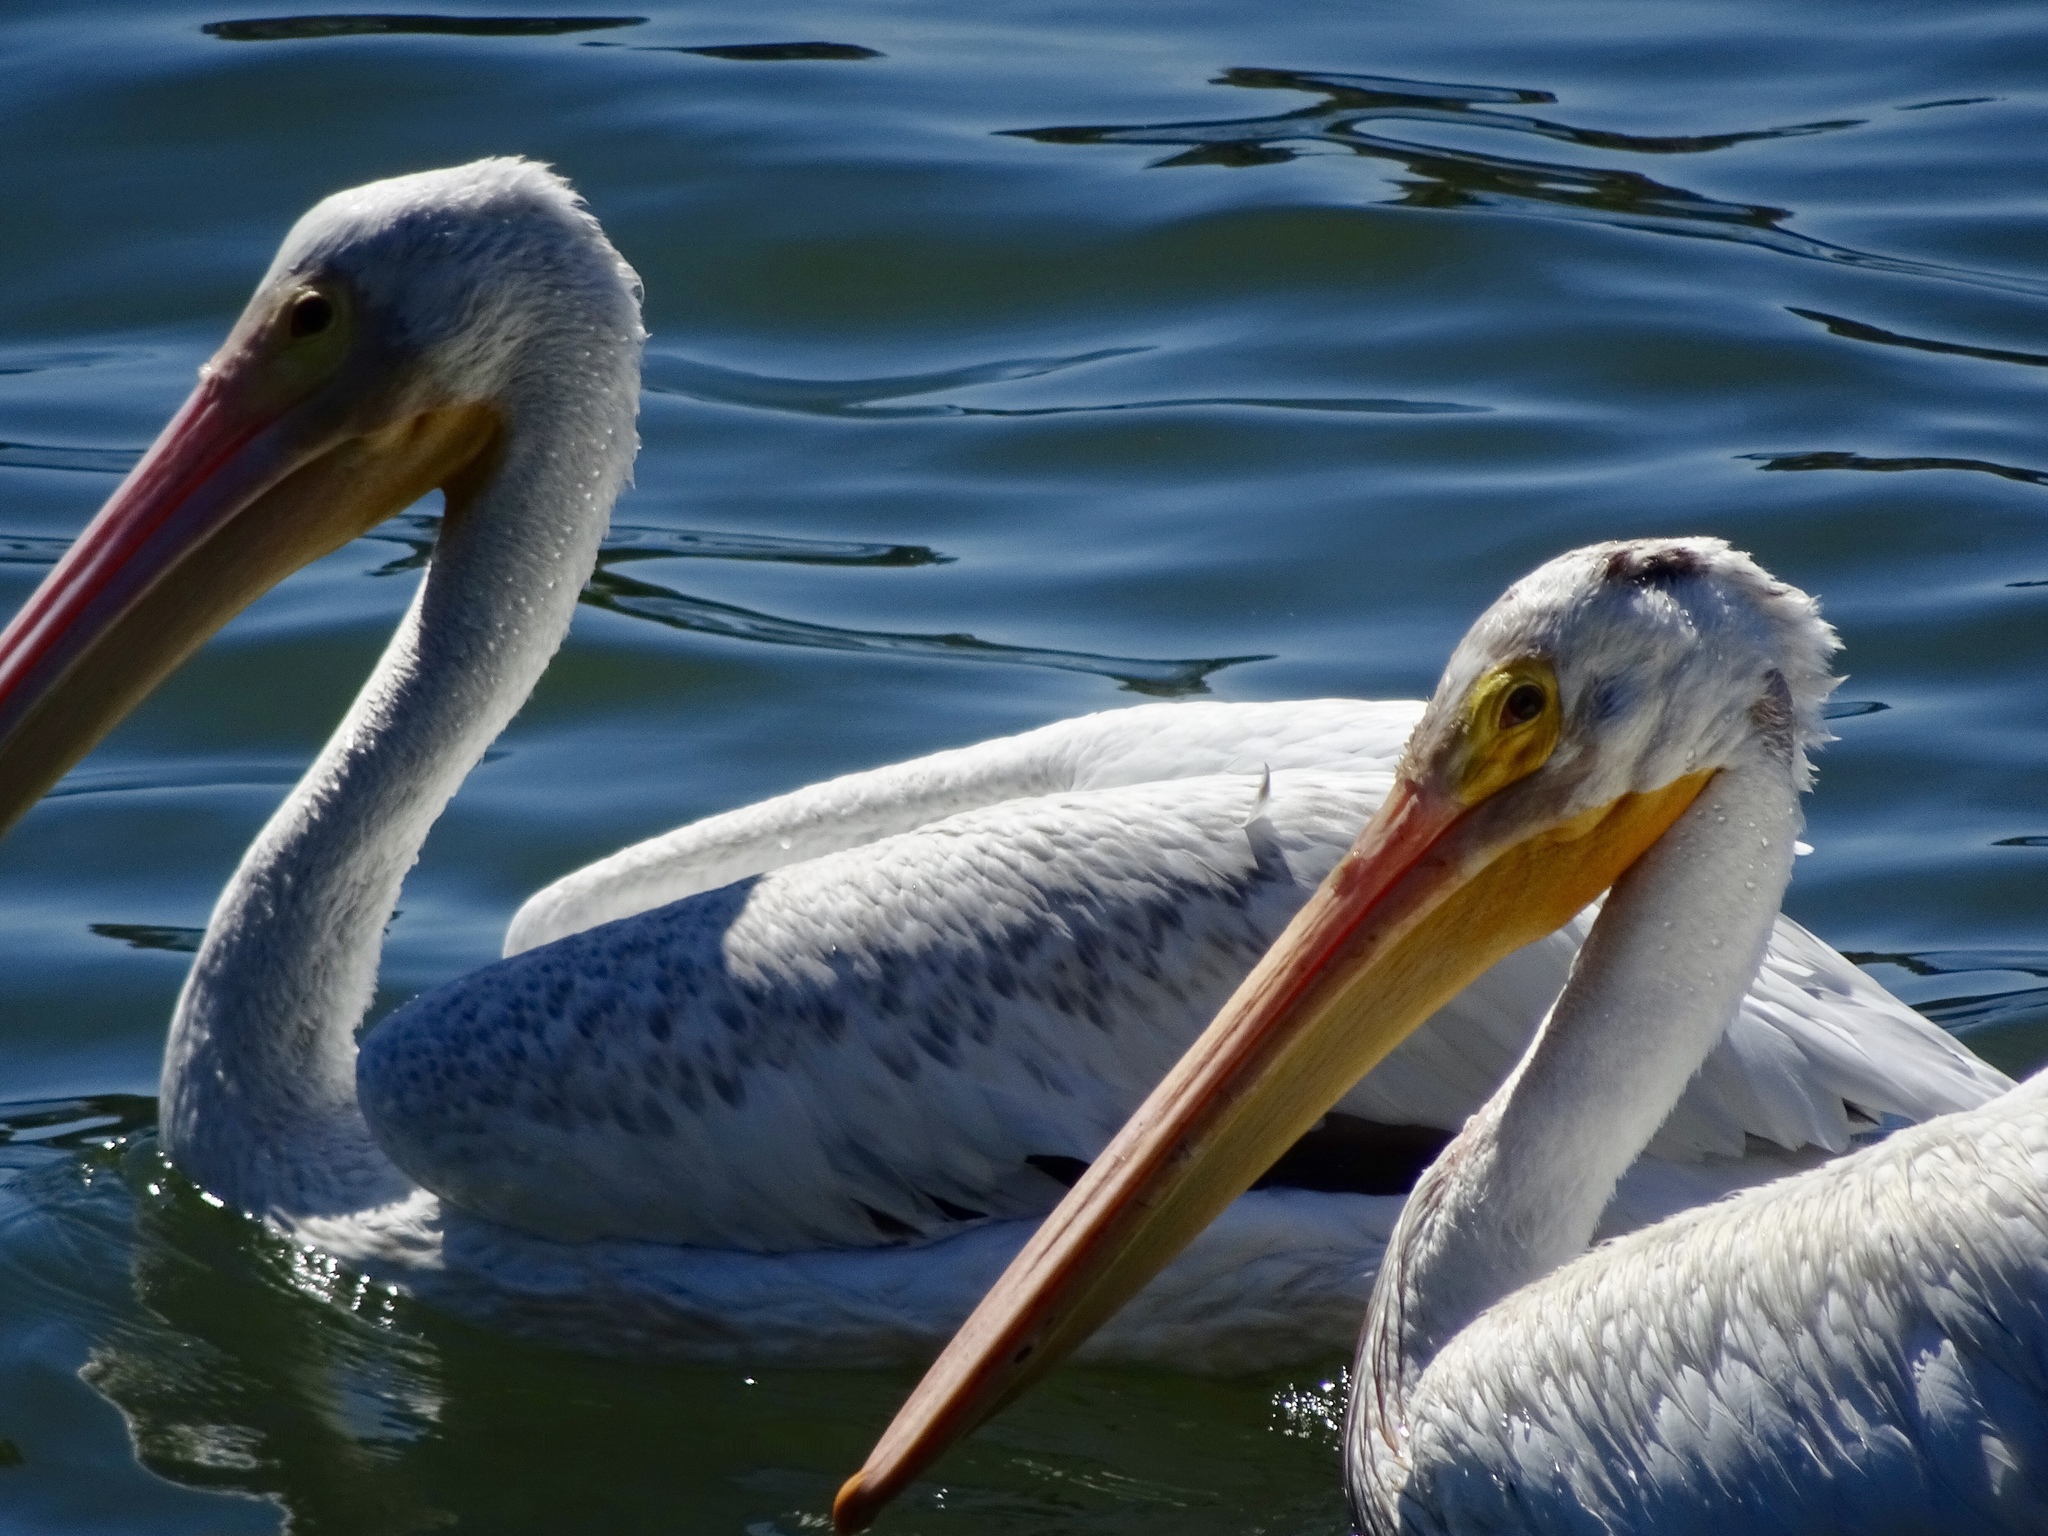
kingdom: Animalia
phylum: Chordata
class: Aves
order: Pelecaniformes
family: Pelecanidae
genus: Pelecanus
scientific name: Pelecanus erythrorhynchos
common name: American white pelican
